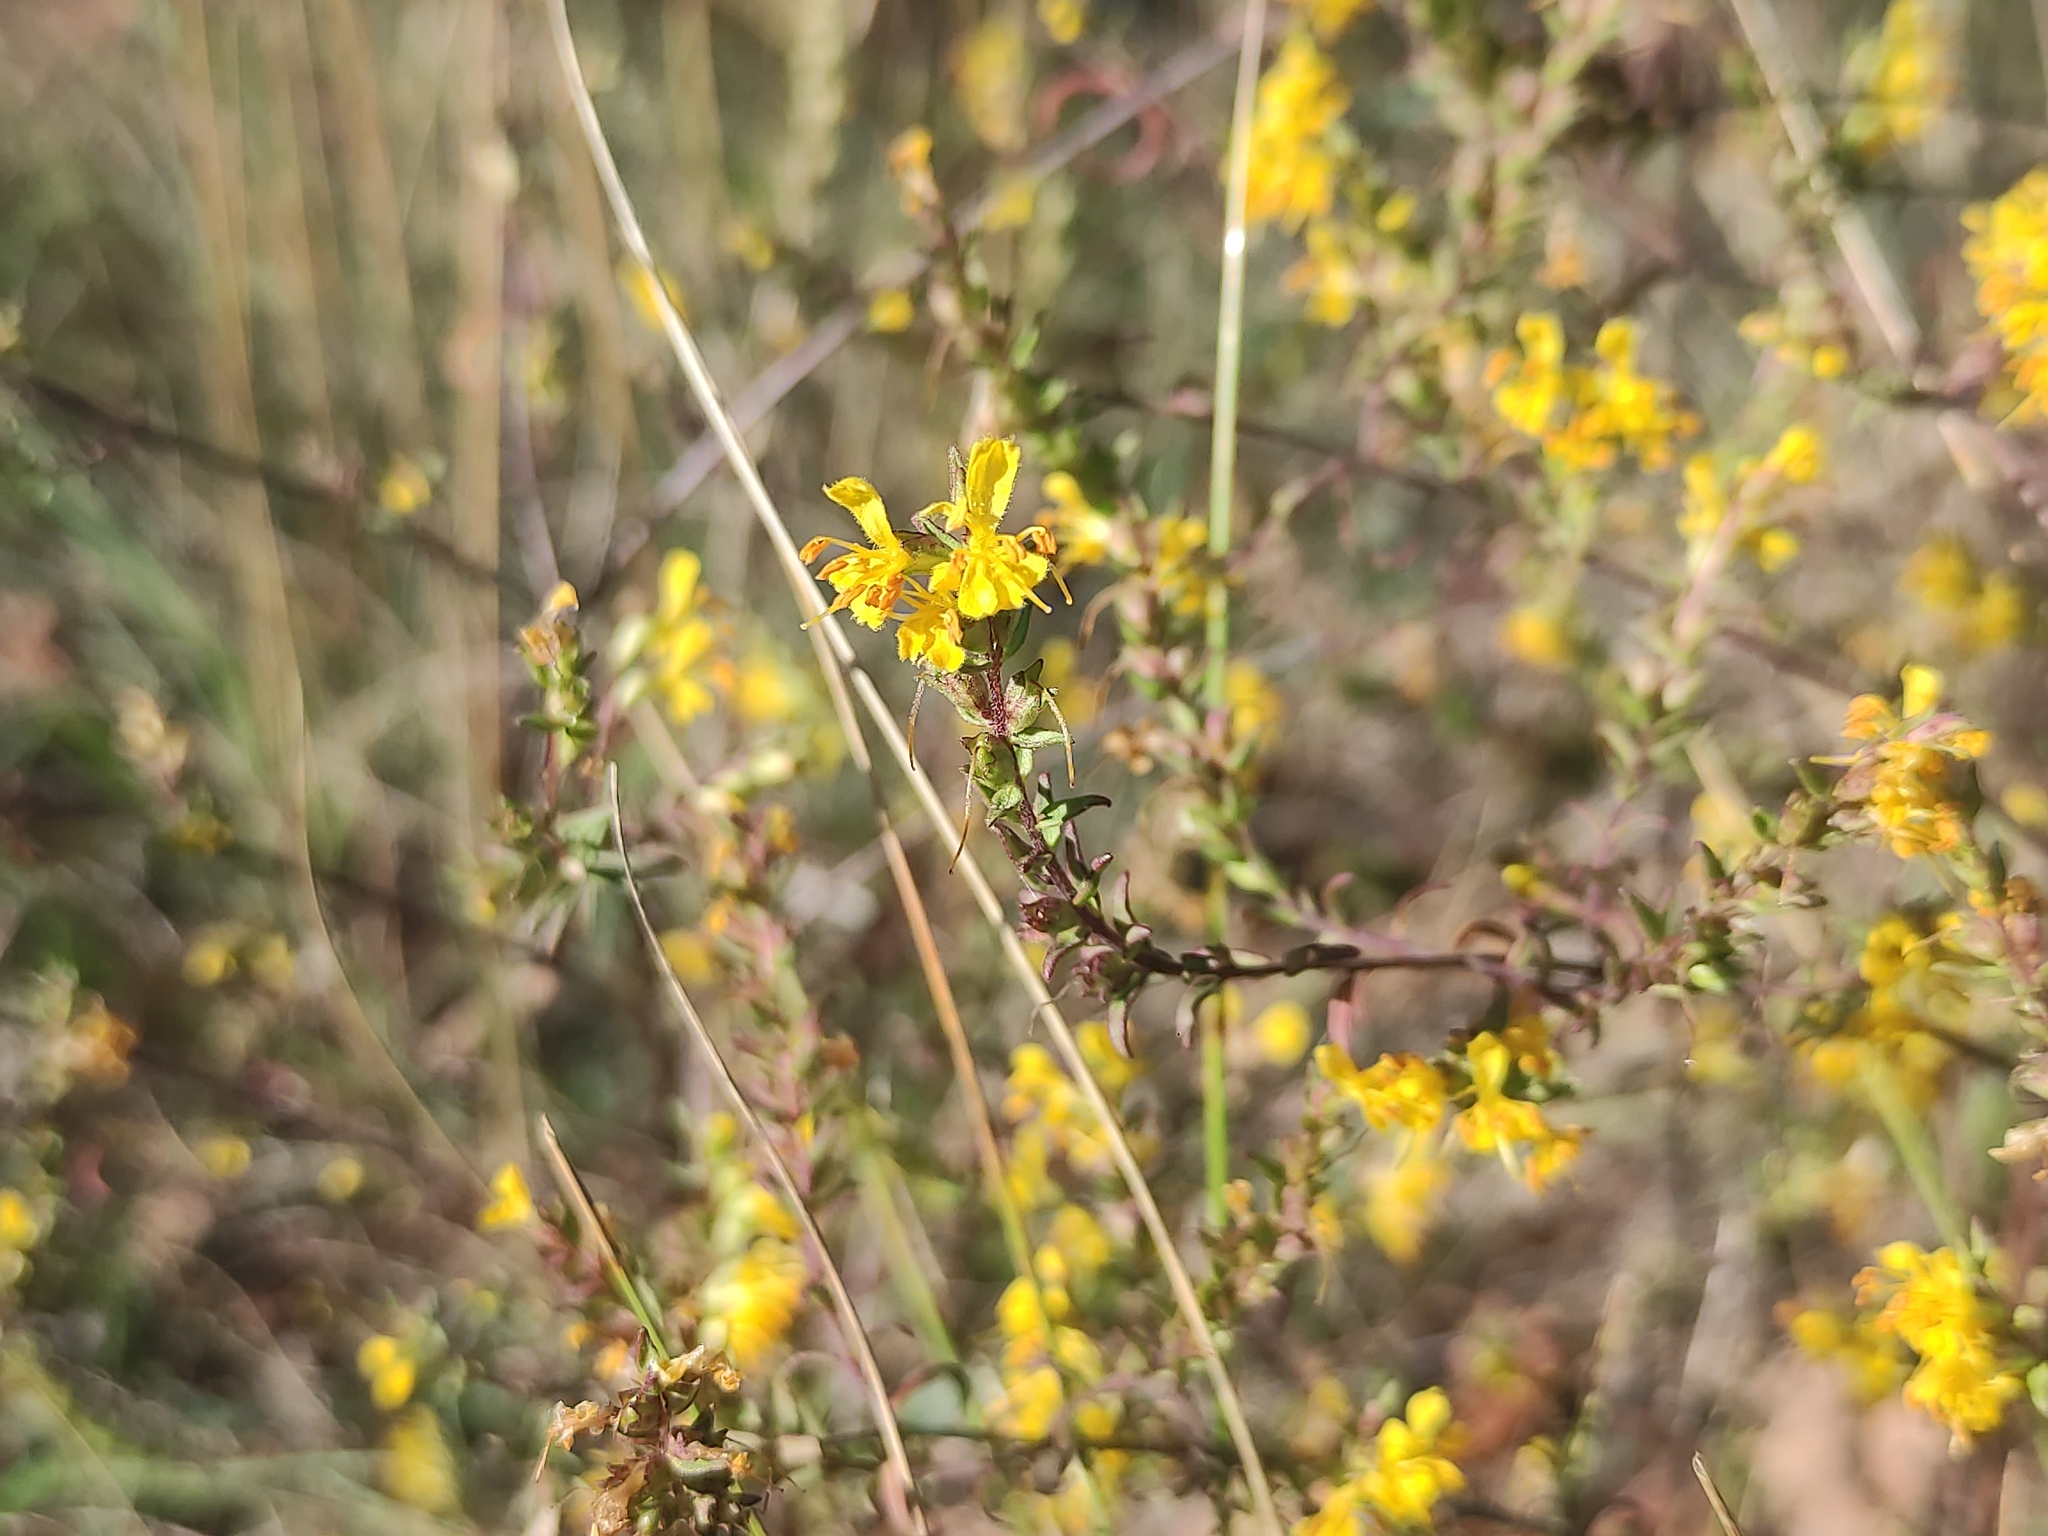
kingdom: Plantae
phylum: Tracheophyta
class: Magnoliopsida
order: Lamiales
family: Orobanchaceae
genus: Odontites
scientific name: Odontites luteus
